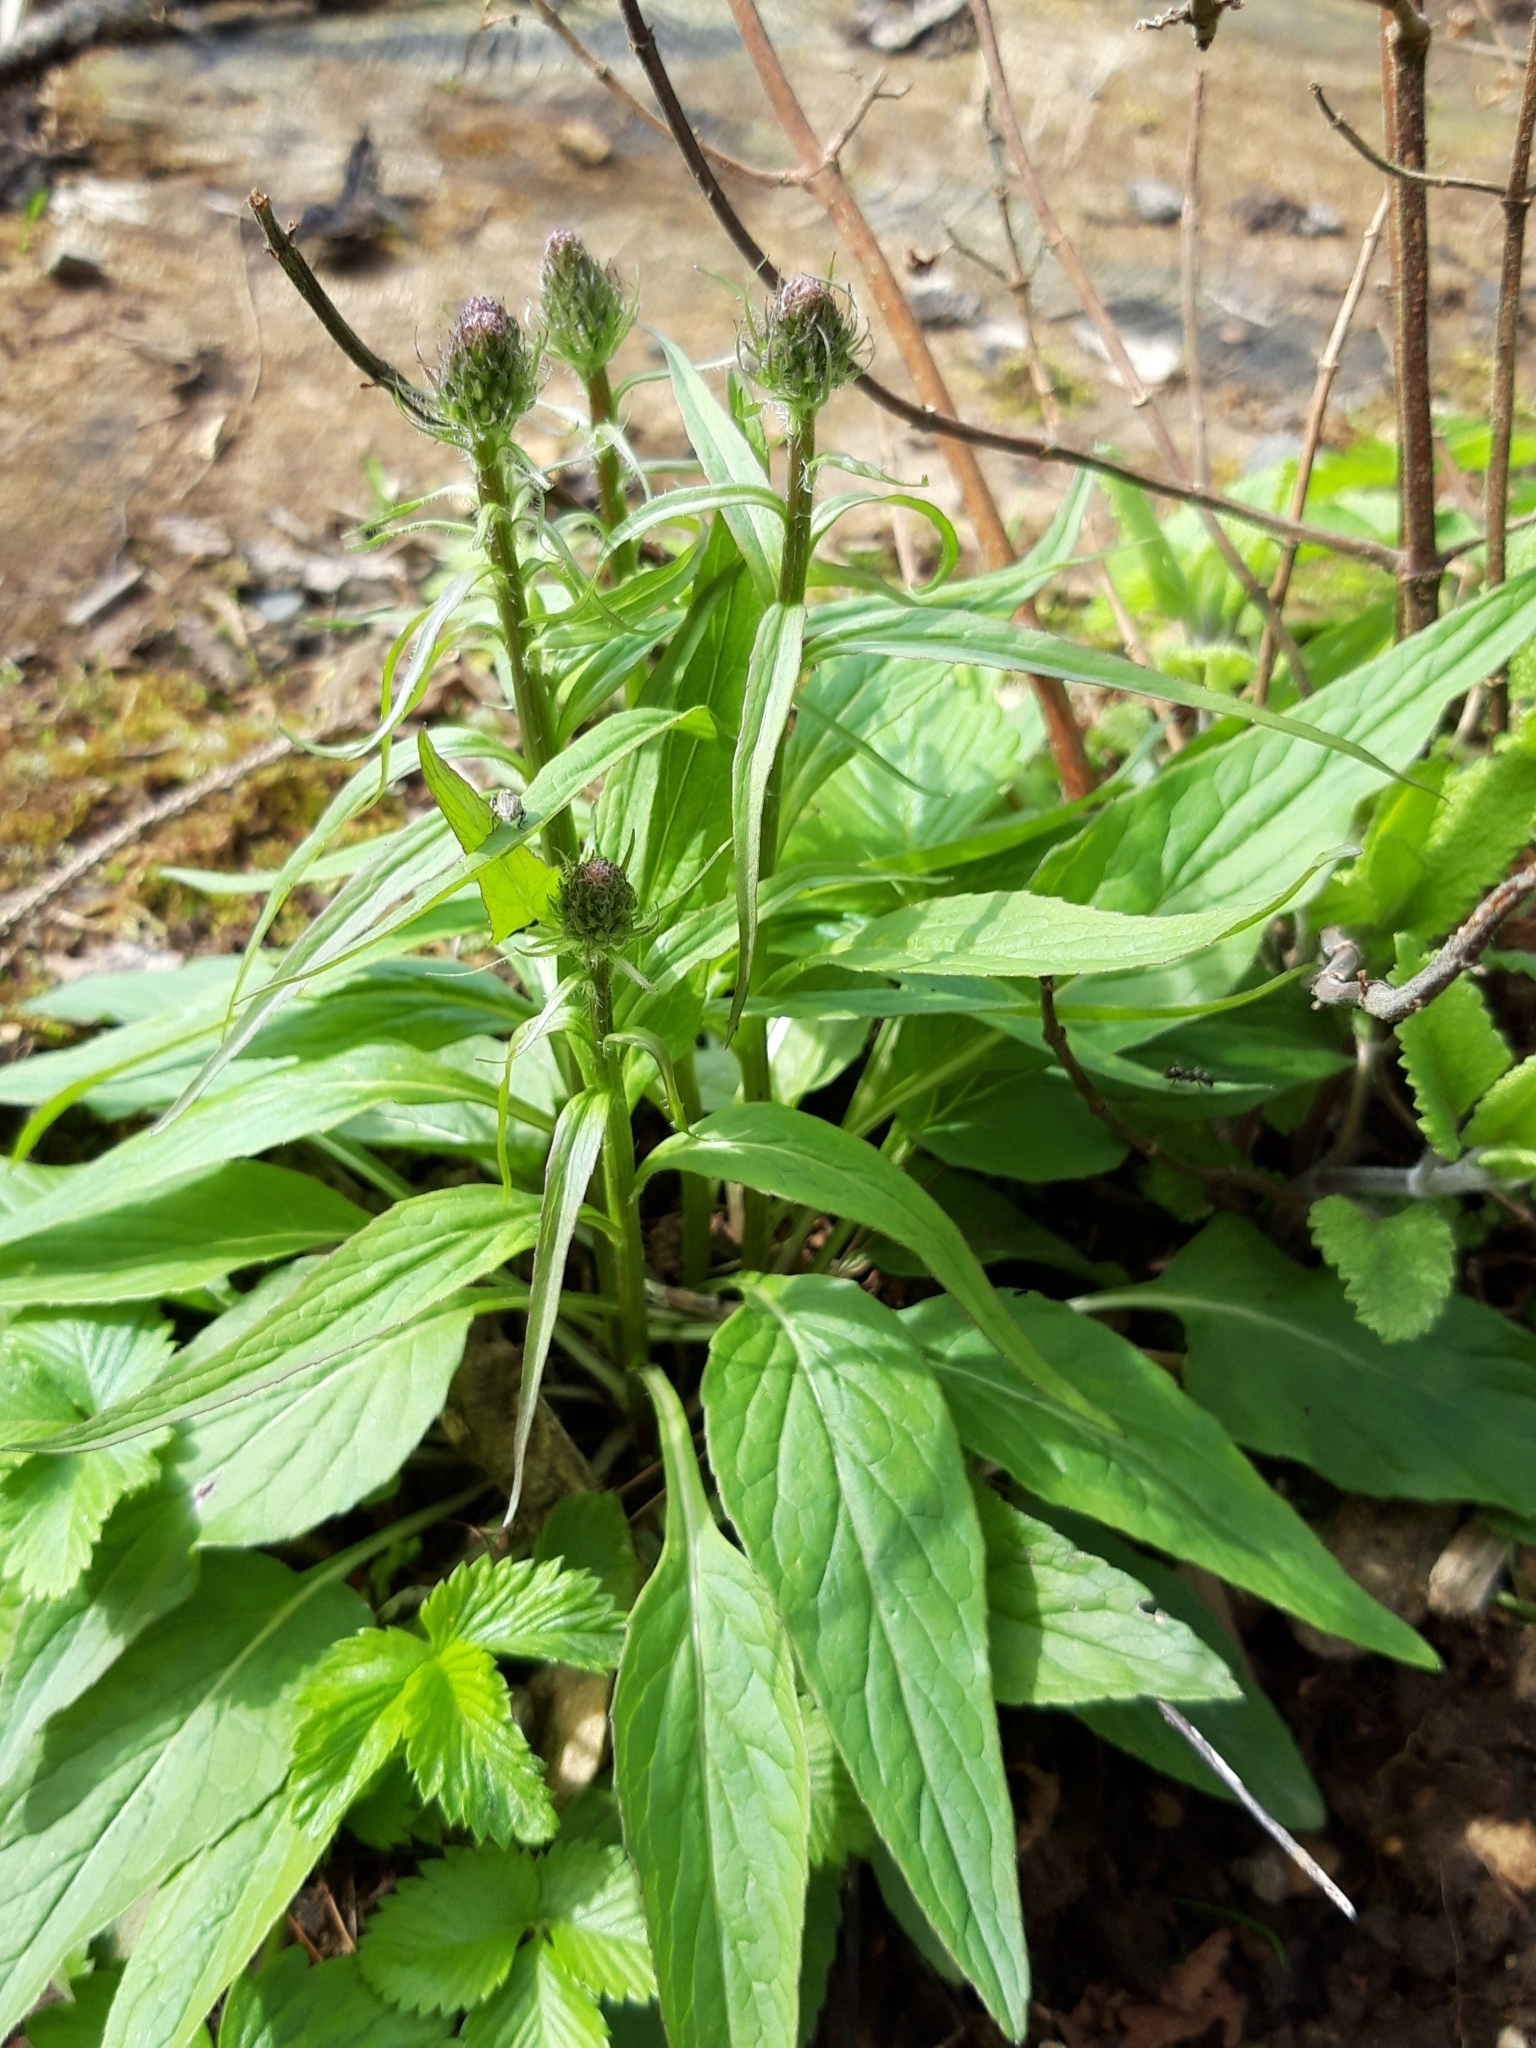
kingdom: Plantae
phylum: Tracheophyta
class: Magnoliopsida
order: Asterales
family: Campanulaceae
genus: Phyteuma
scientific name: Phyteuma nigrum
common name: Black rampion
